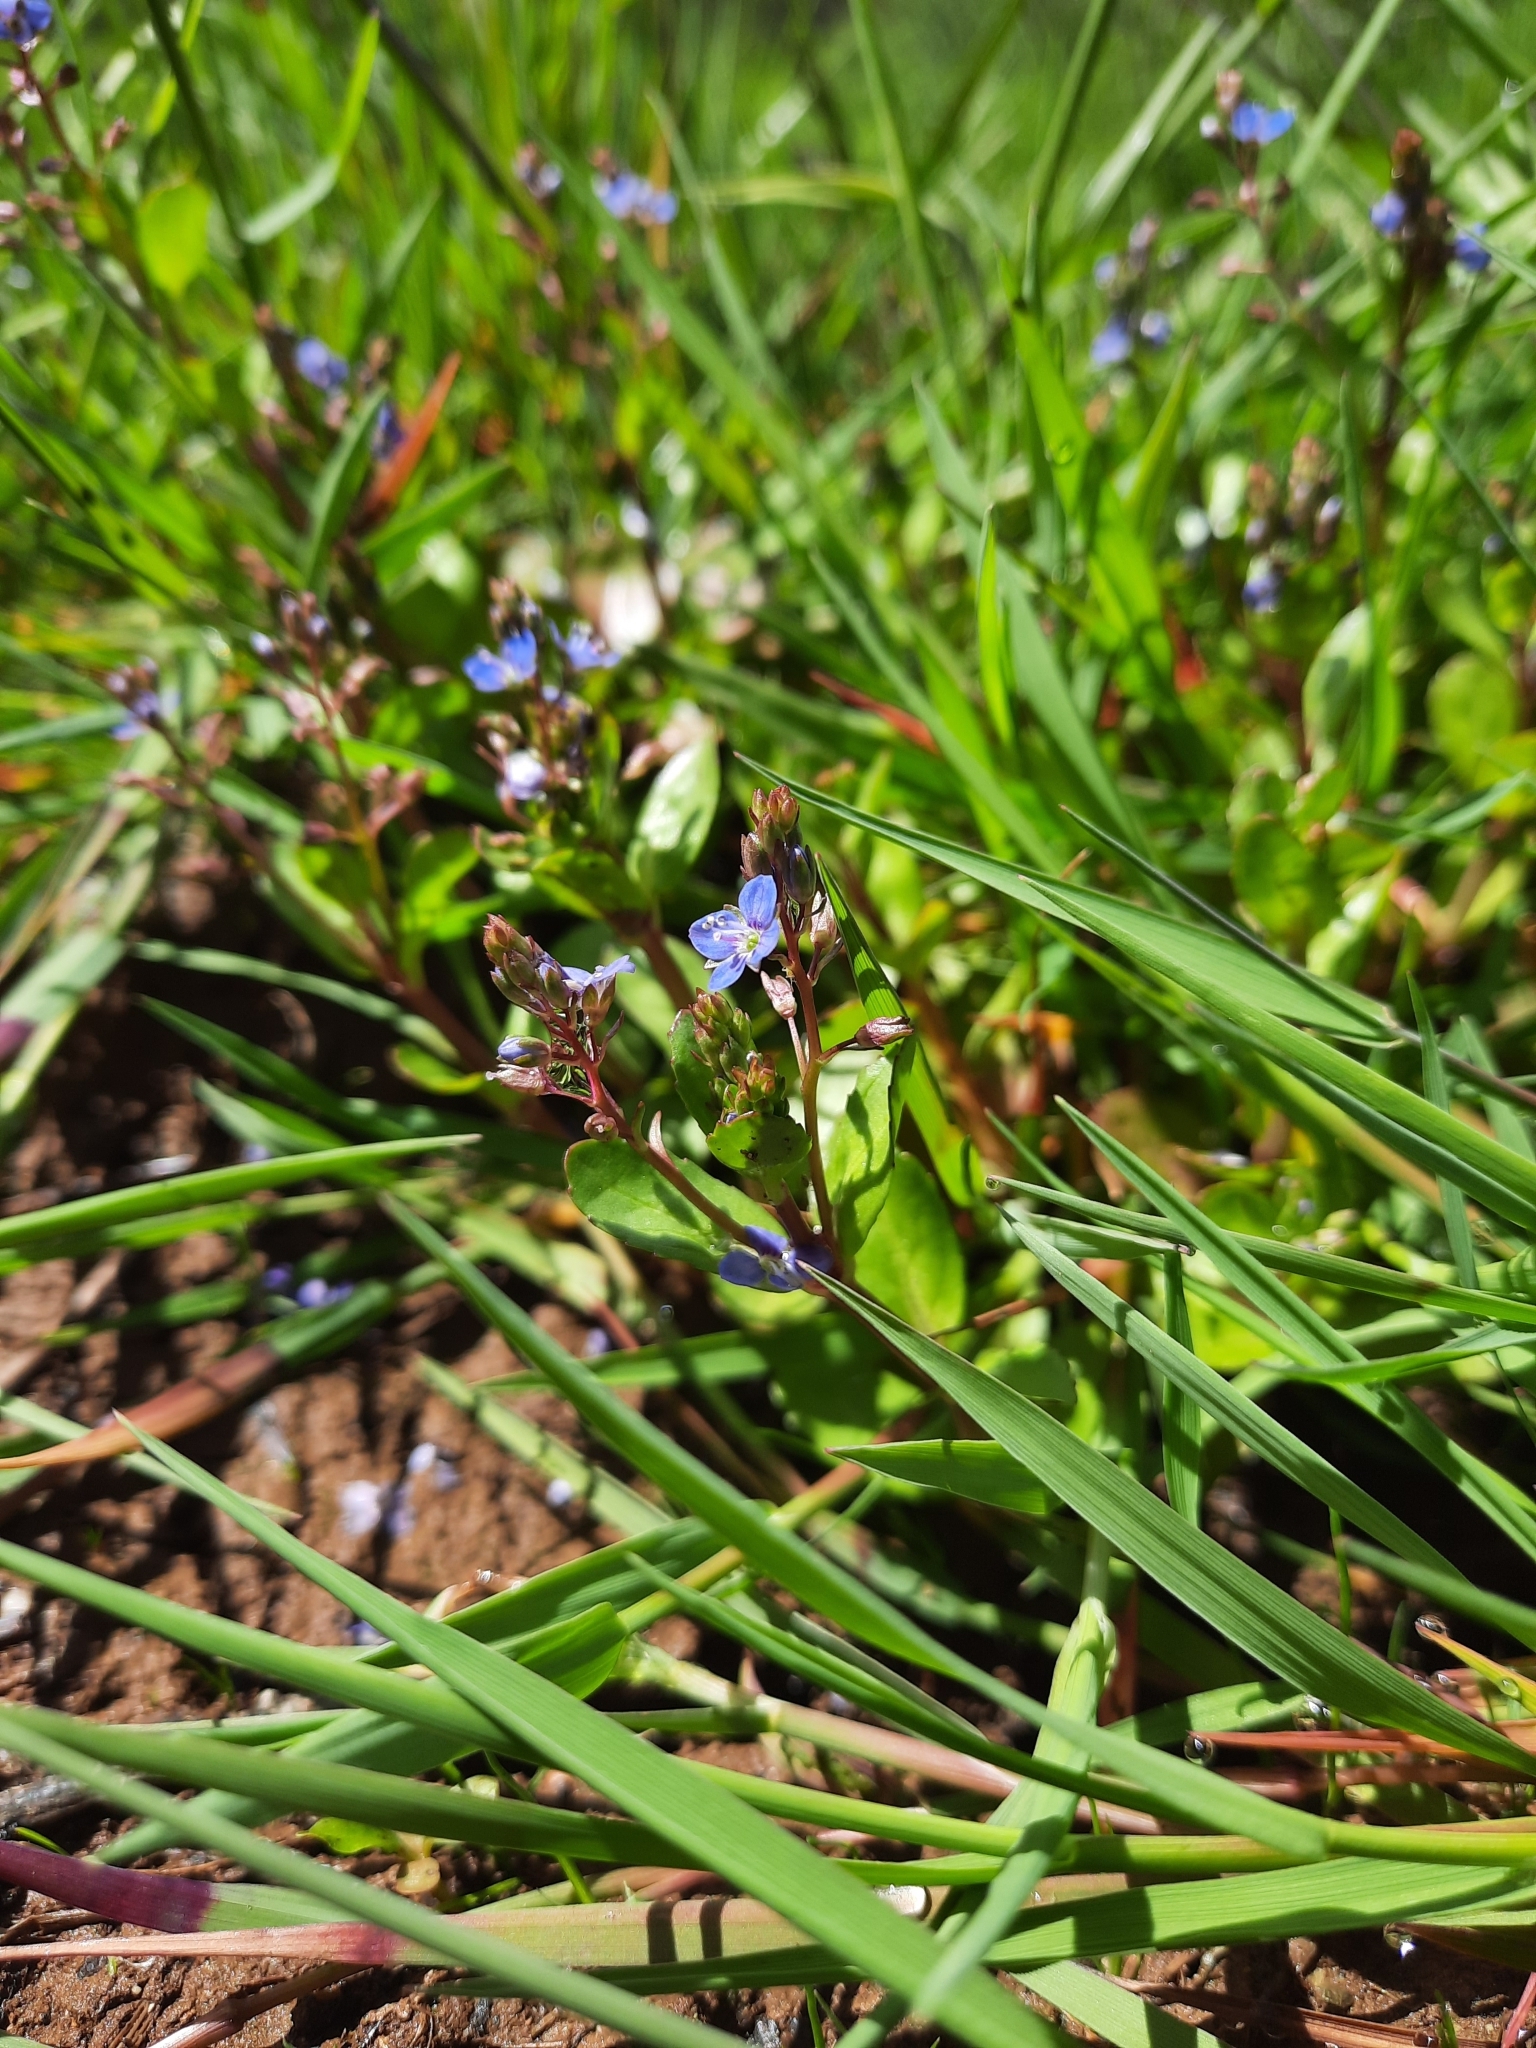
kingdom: Plantae
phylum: Tracheophyta
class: Magnoliopsida
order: Lamiales
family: Plantaginaceae
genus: Veronica
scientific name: Veronica beccabunga
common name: Brooklime
